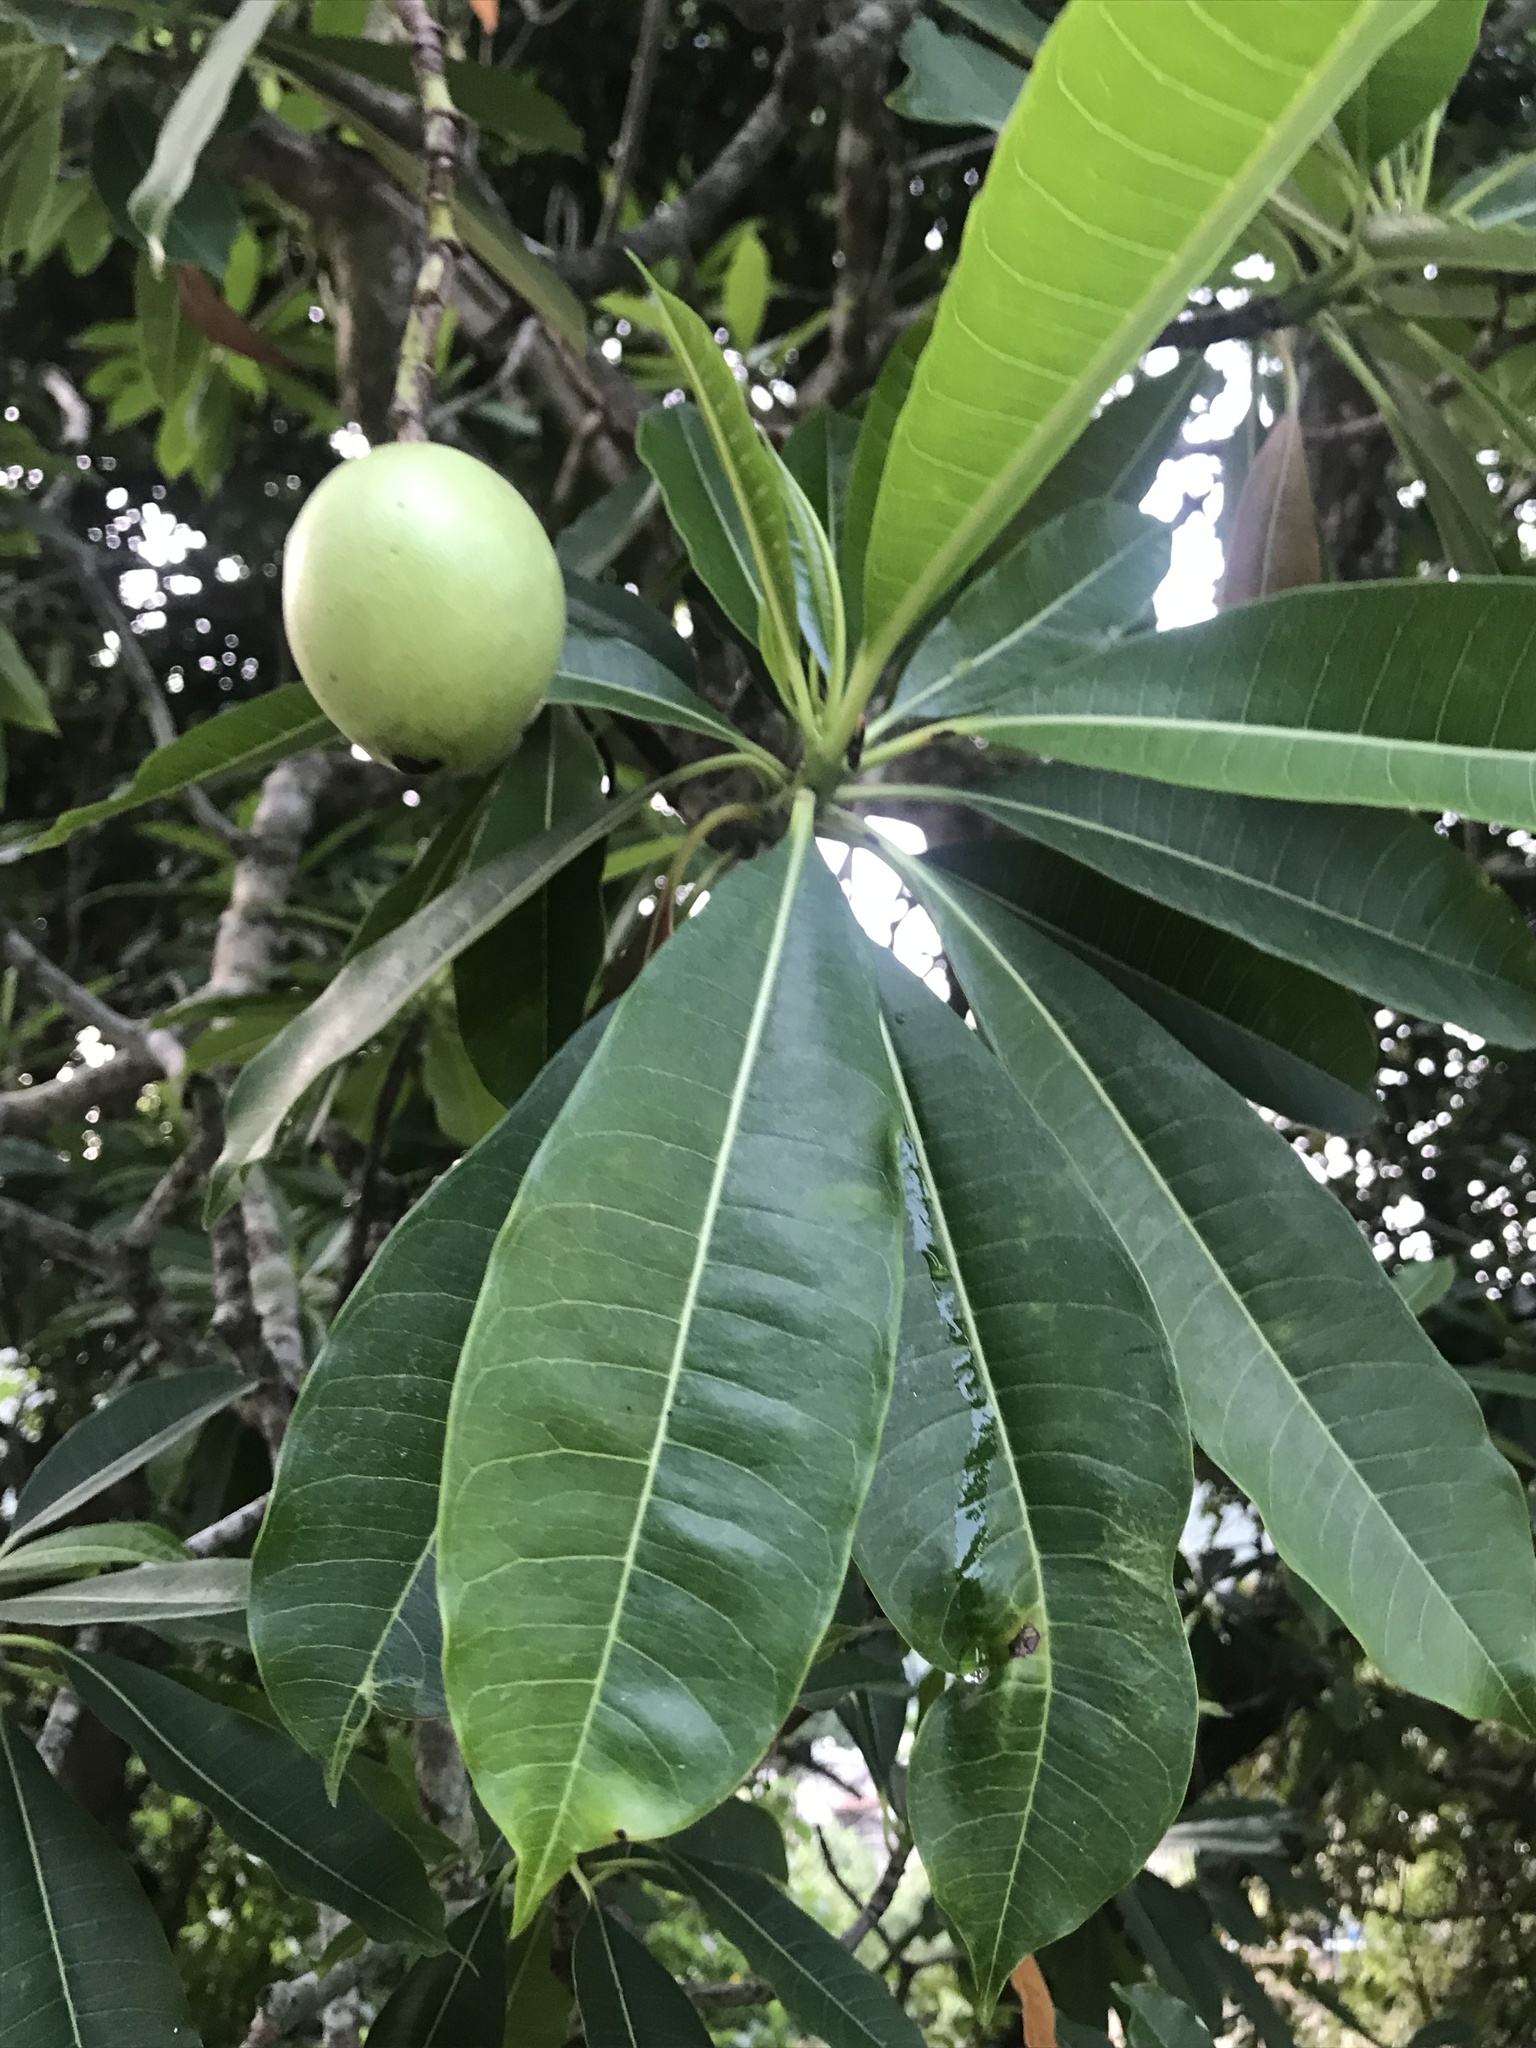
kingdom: Plantae
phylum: Tracheophyta
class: Magnoliopsida
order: Gentianales
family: Apocynaceae
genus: Cerbera
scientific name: Cerbera manghas
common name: Reva
